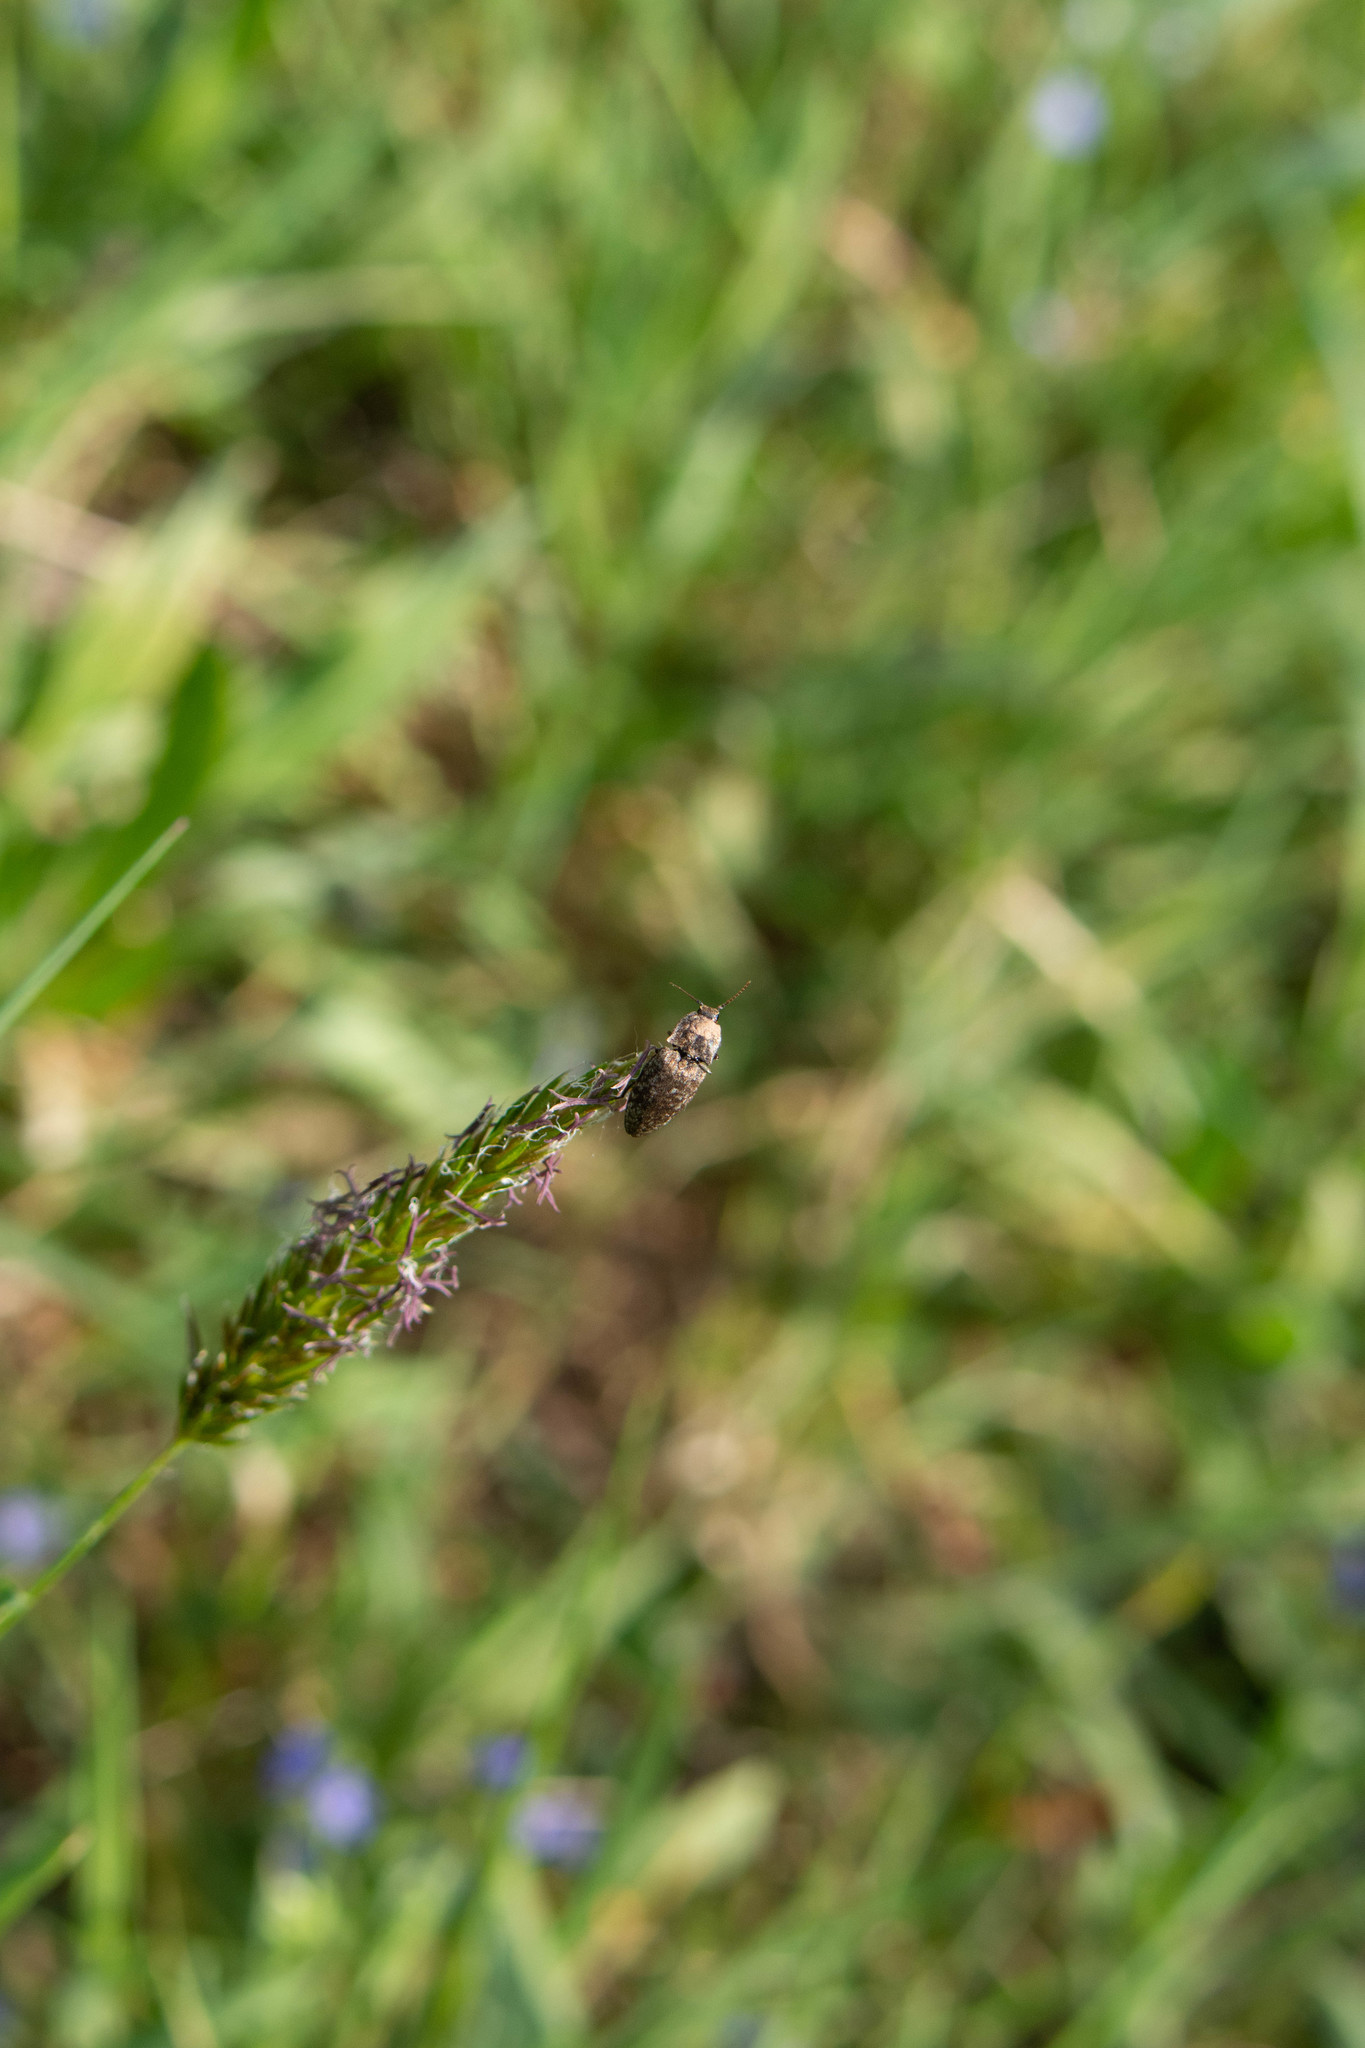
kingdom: Animalia
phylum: Arthropoda
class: Insecta
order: Coleoptera
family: Elateridae
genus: Agrypnus
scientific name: Agrypnus murinus
